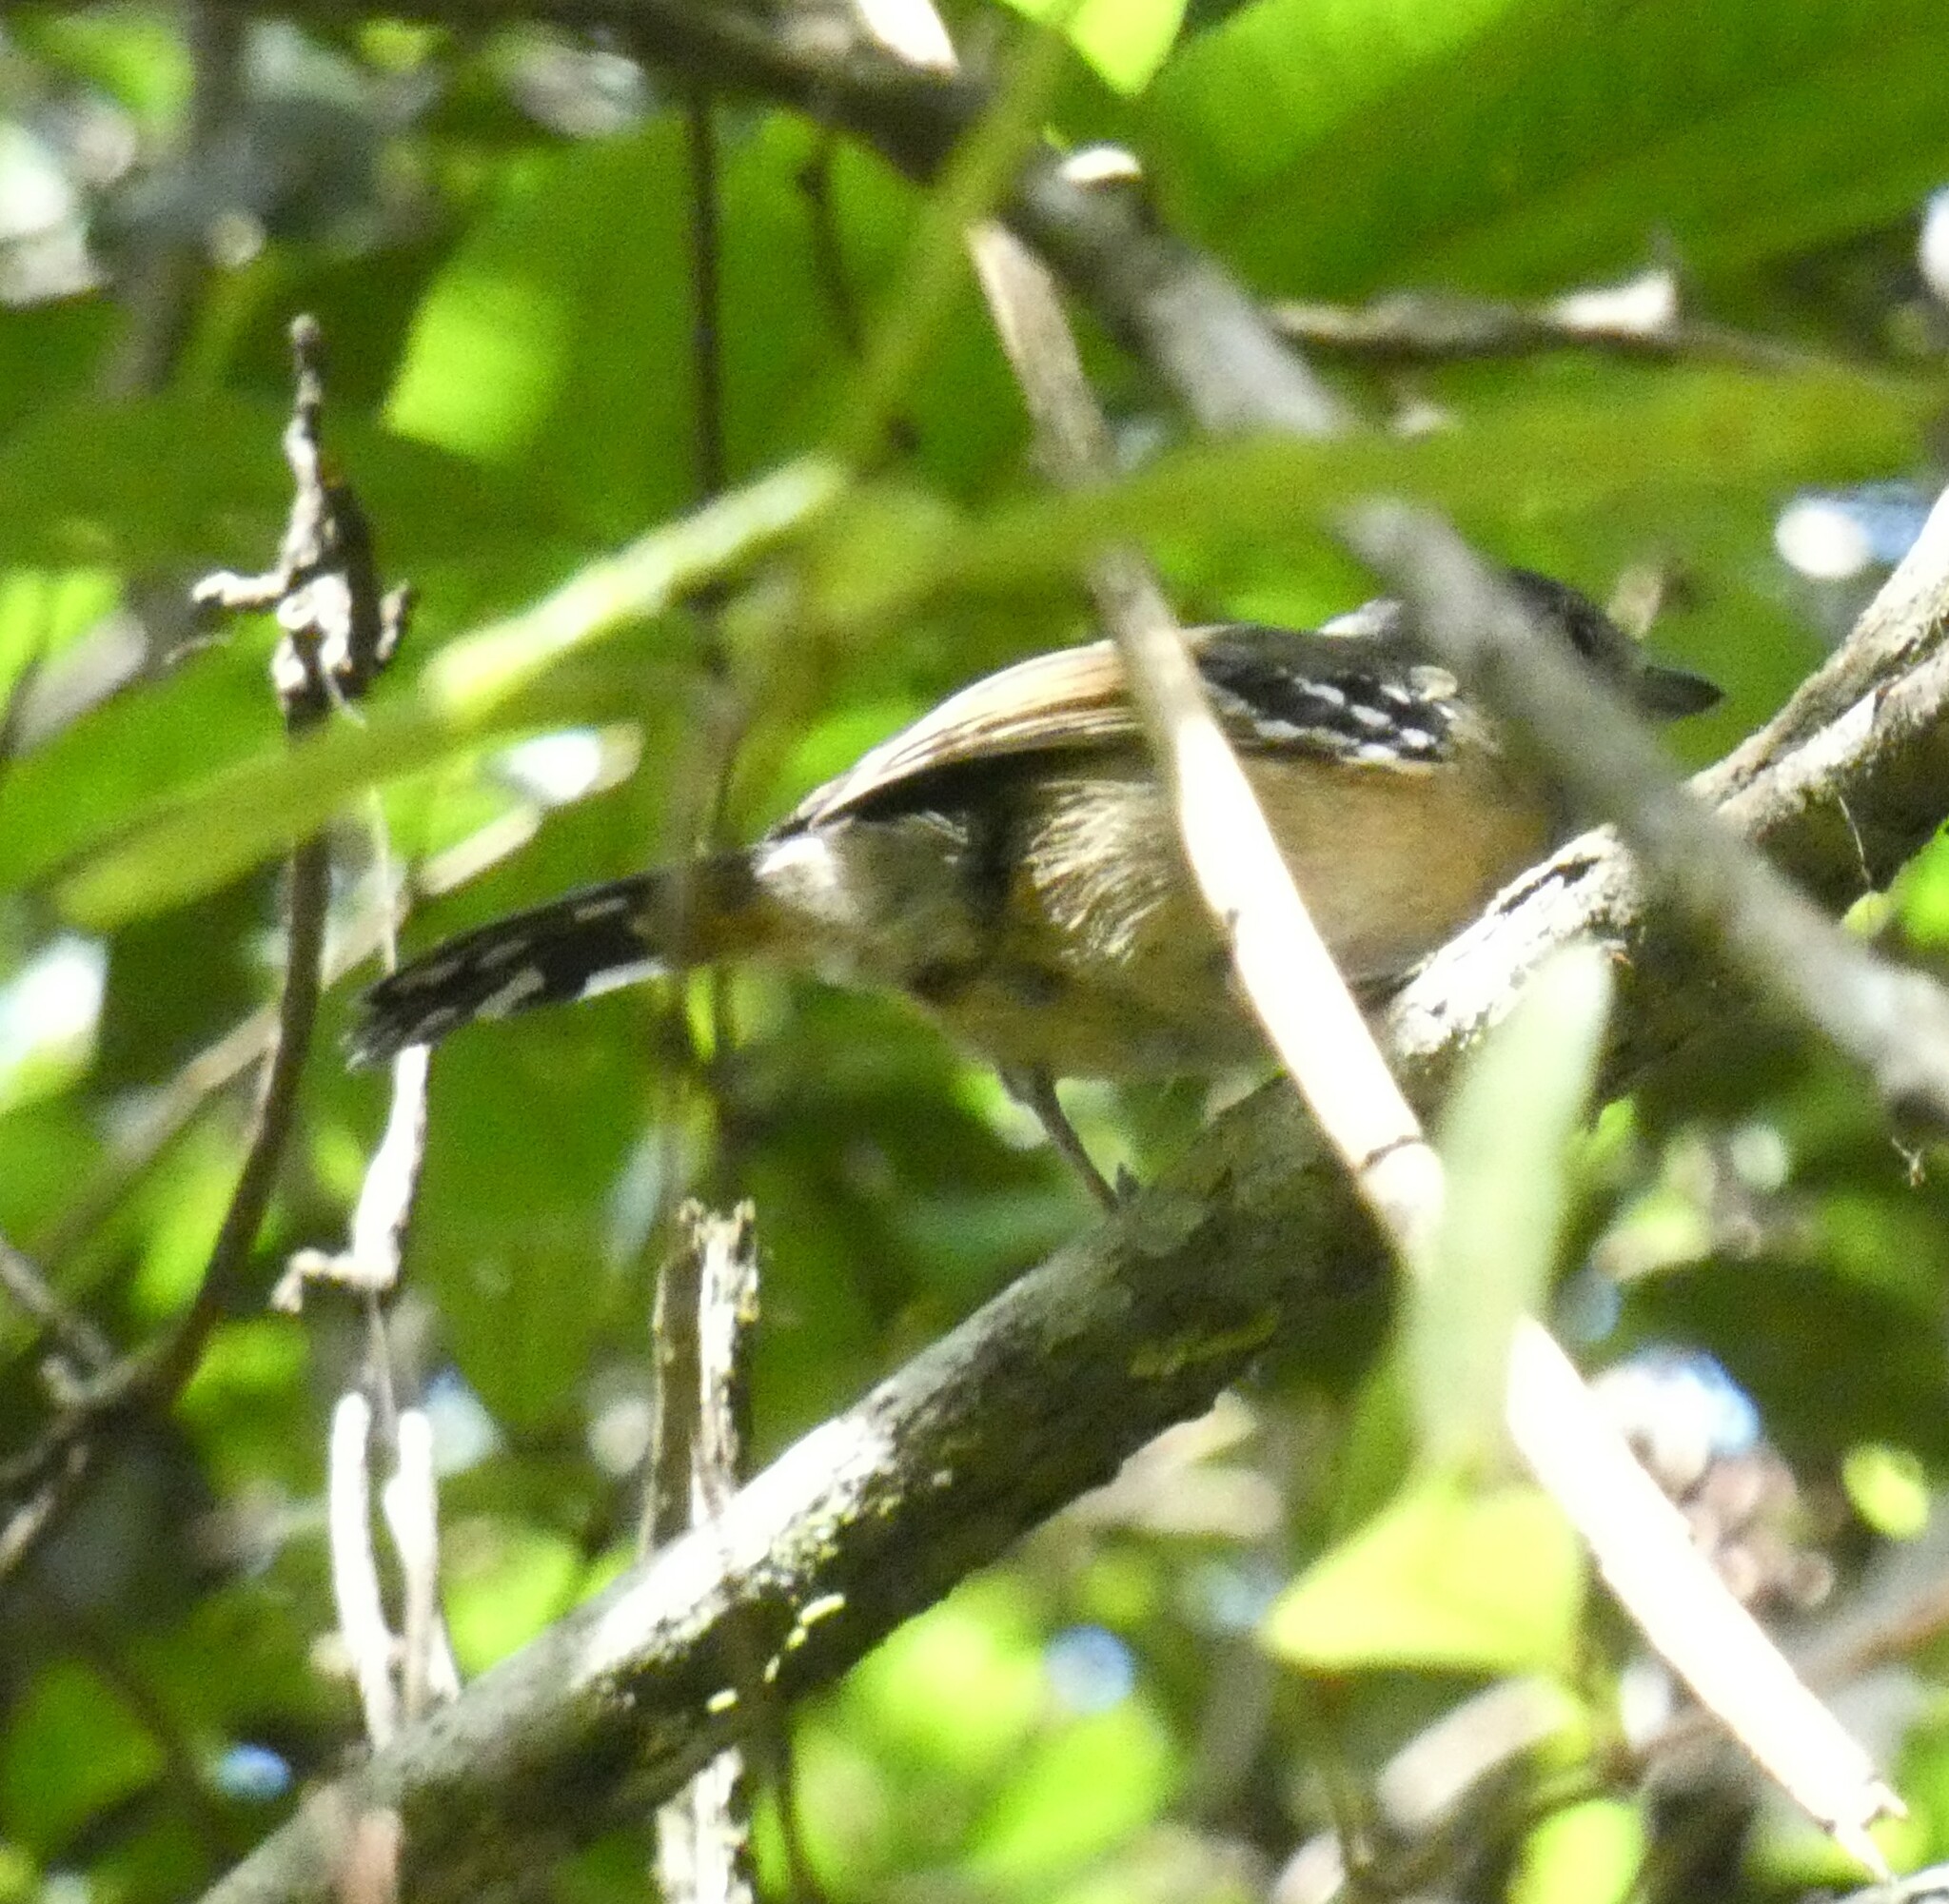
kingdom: Animalia
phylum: Chordata
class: Aves
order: Passeriformes
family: Thamnophilidae
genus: Thamnophilus
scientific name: Thamnophilus caerulescens
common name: Variable antshrike
